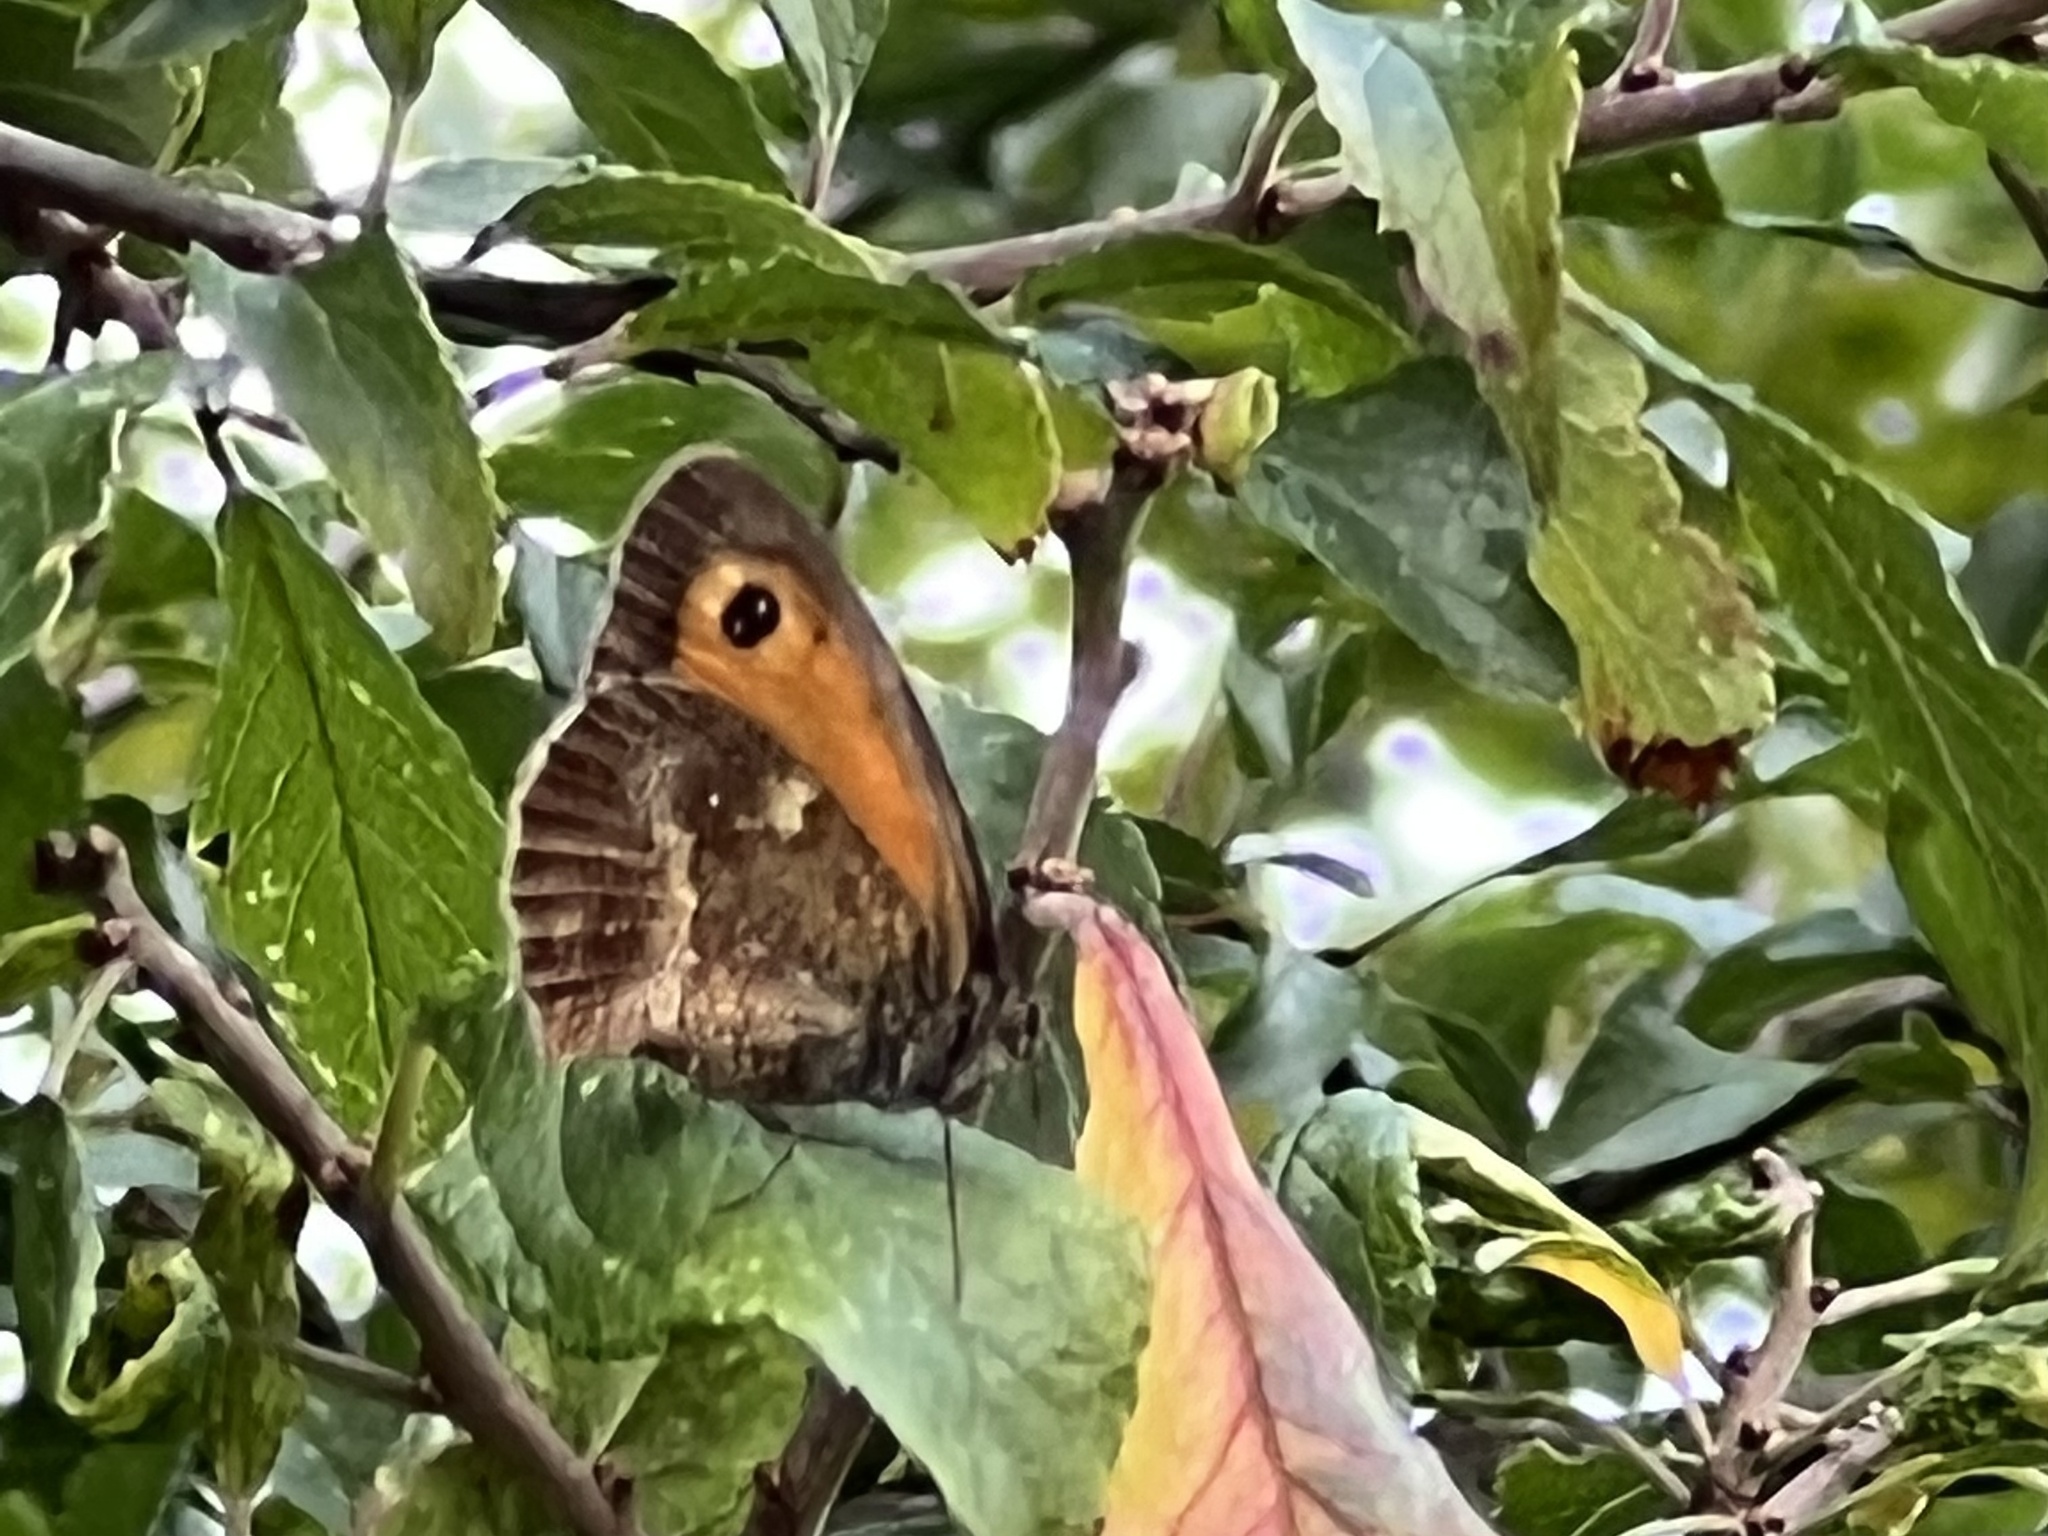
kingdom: Animalia
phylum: Arthropoda
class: Insecta
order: Lepidoptera
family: Nymphalidae
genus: Pyronia
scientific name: Pyronia tithonus
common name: Gatekeeper
